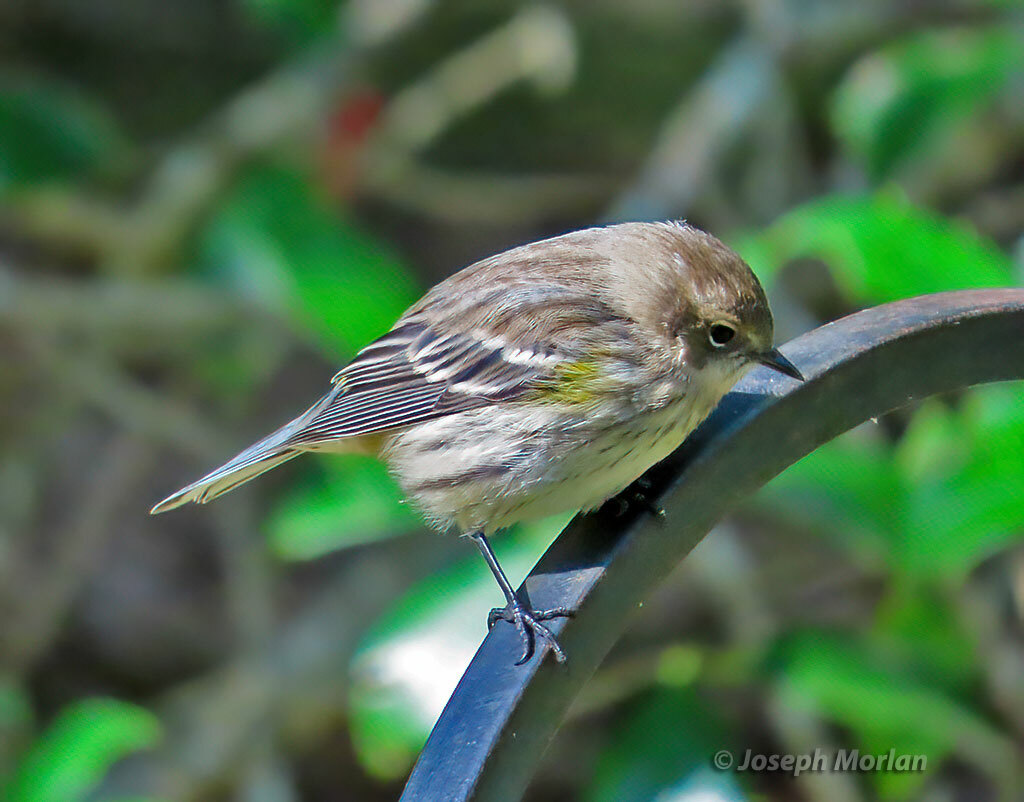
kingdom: Animalia
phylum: Chordata
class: Aves
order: Passeriformes
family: Parulidae
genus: Setophaga
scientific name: Setophaga coronata
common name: Myrtle warbler
